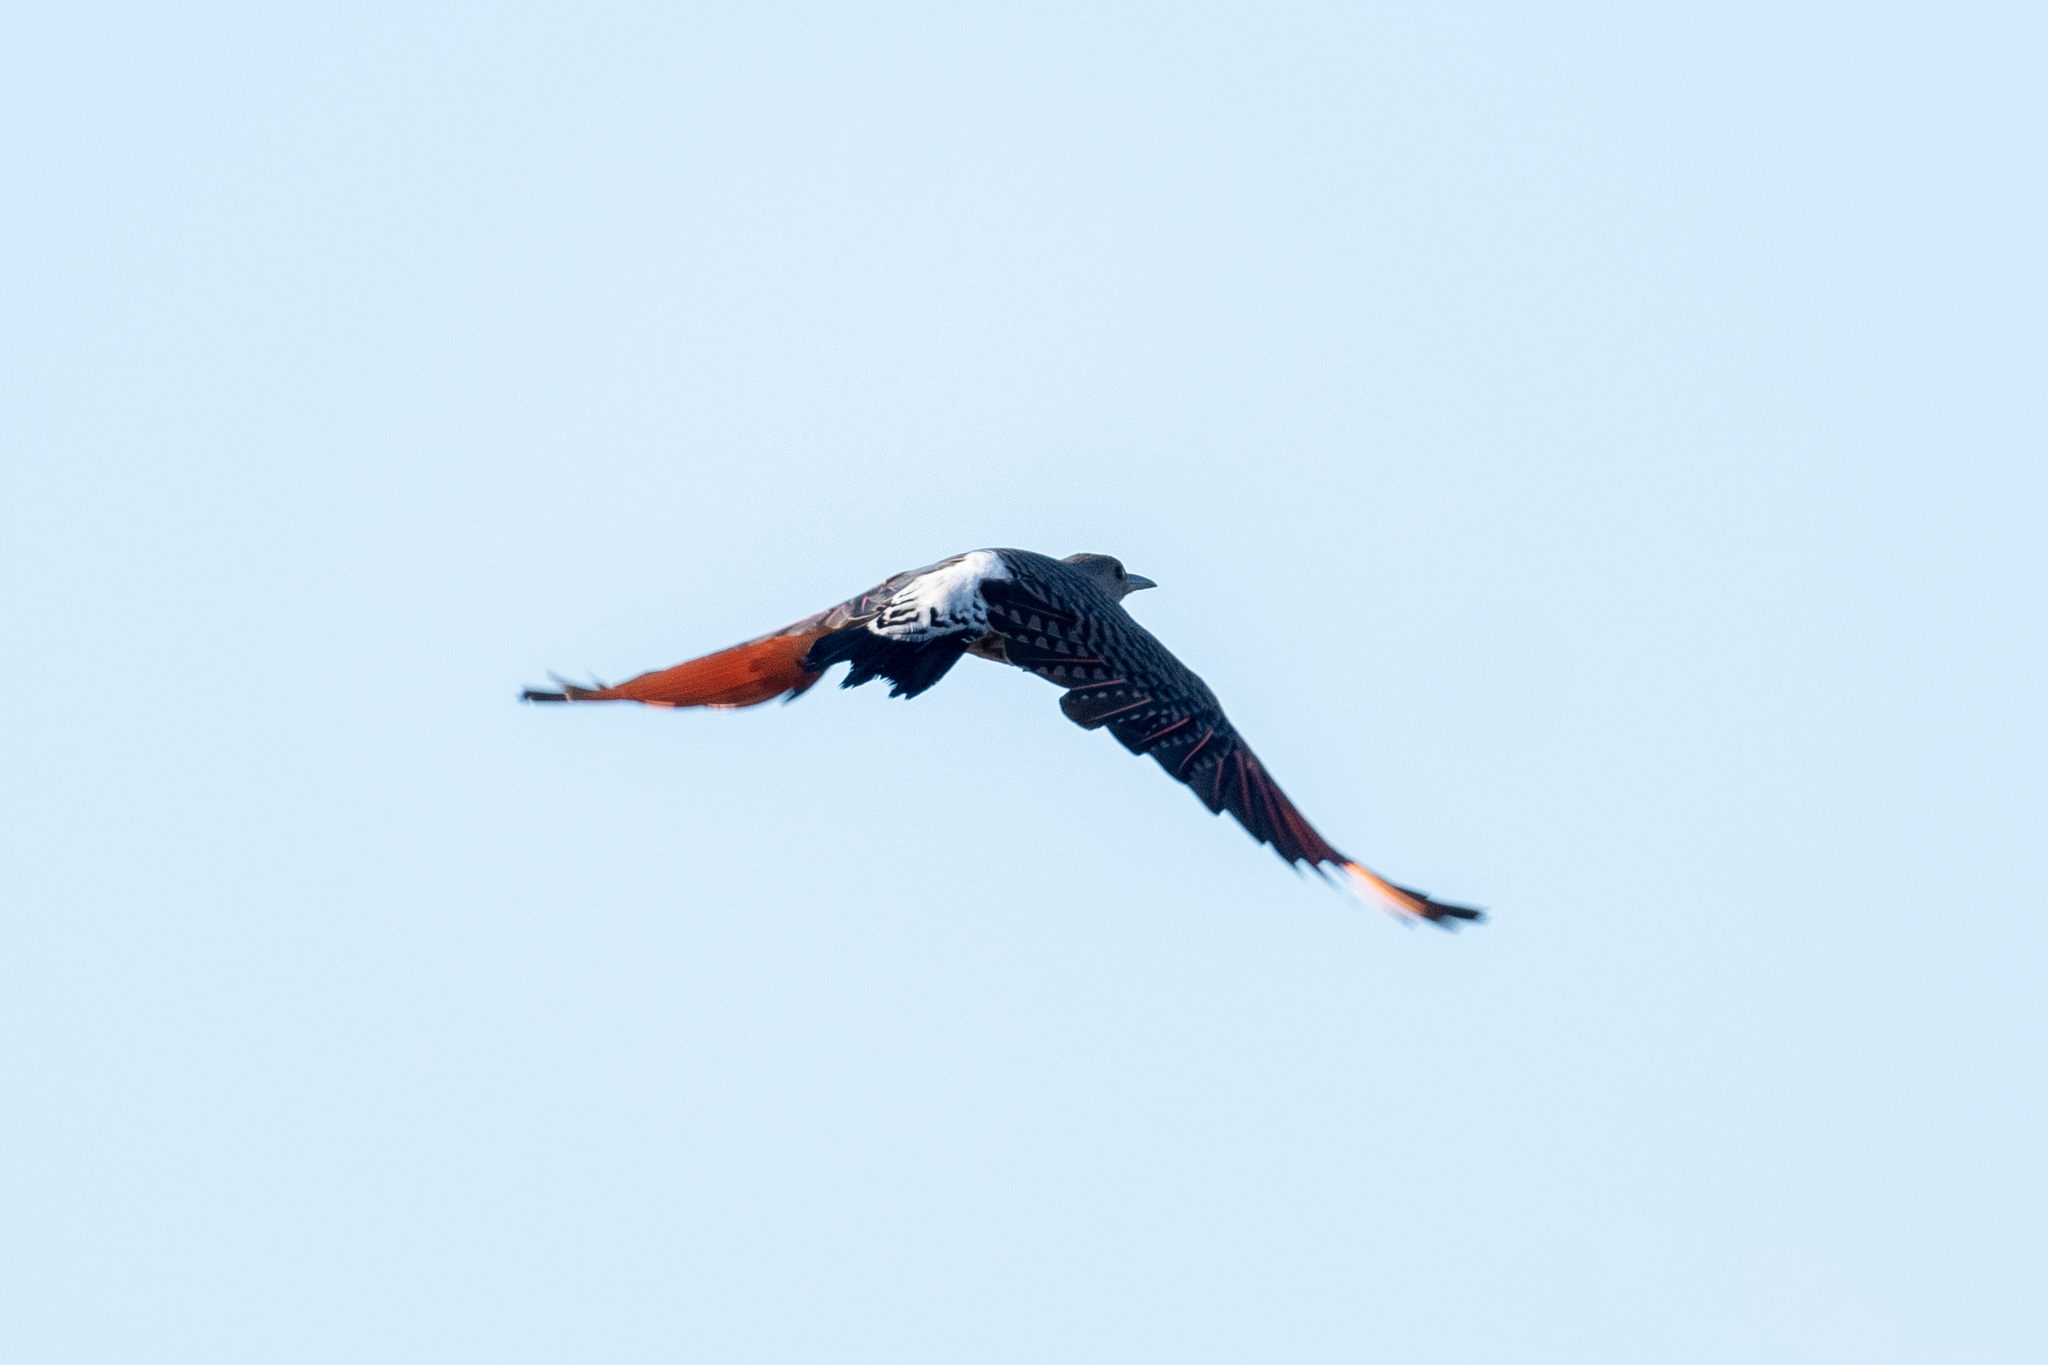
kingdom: Animalia
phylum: Chordata
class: Aves
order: Piciformes
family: Picidae
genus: Colaptes
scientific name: Colaptes auratus
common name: Northern flicker
